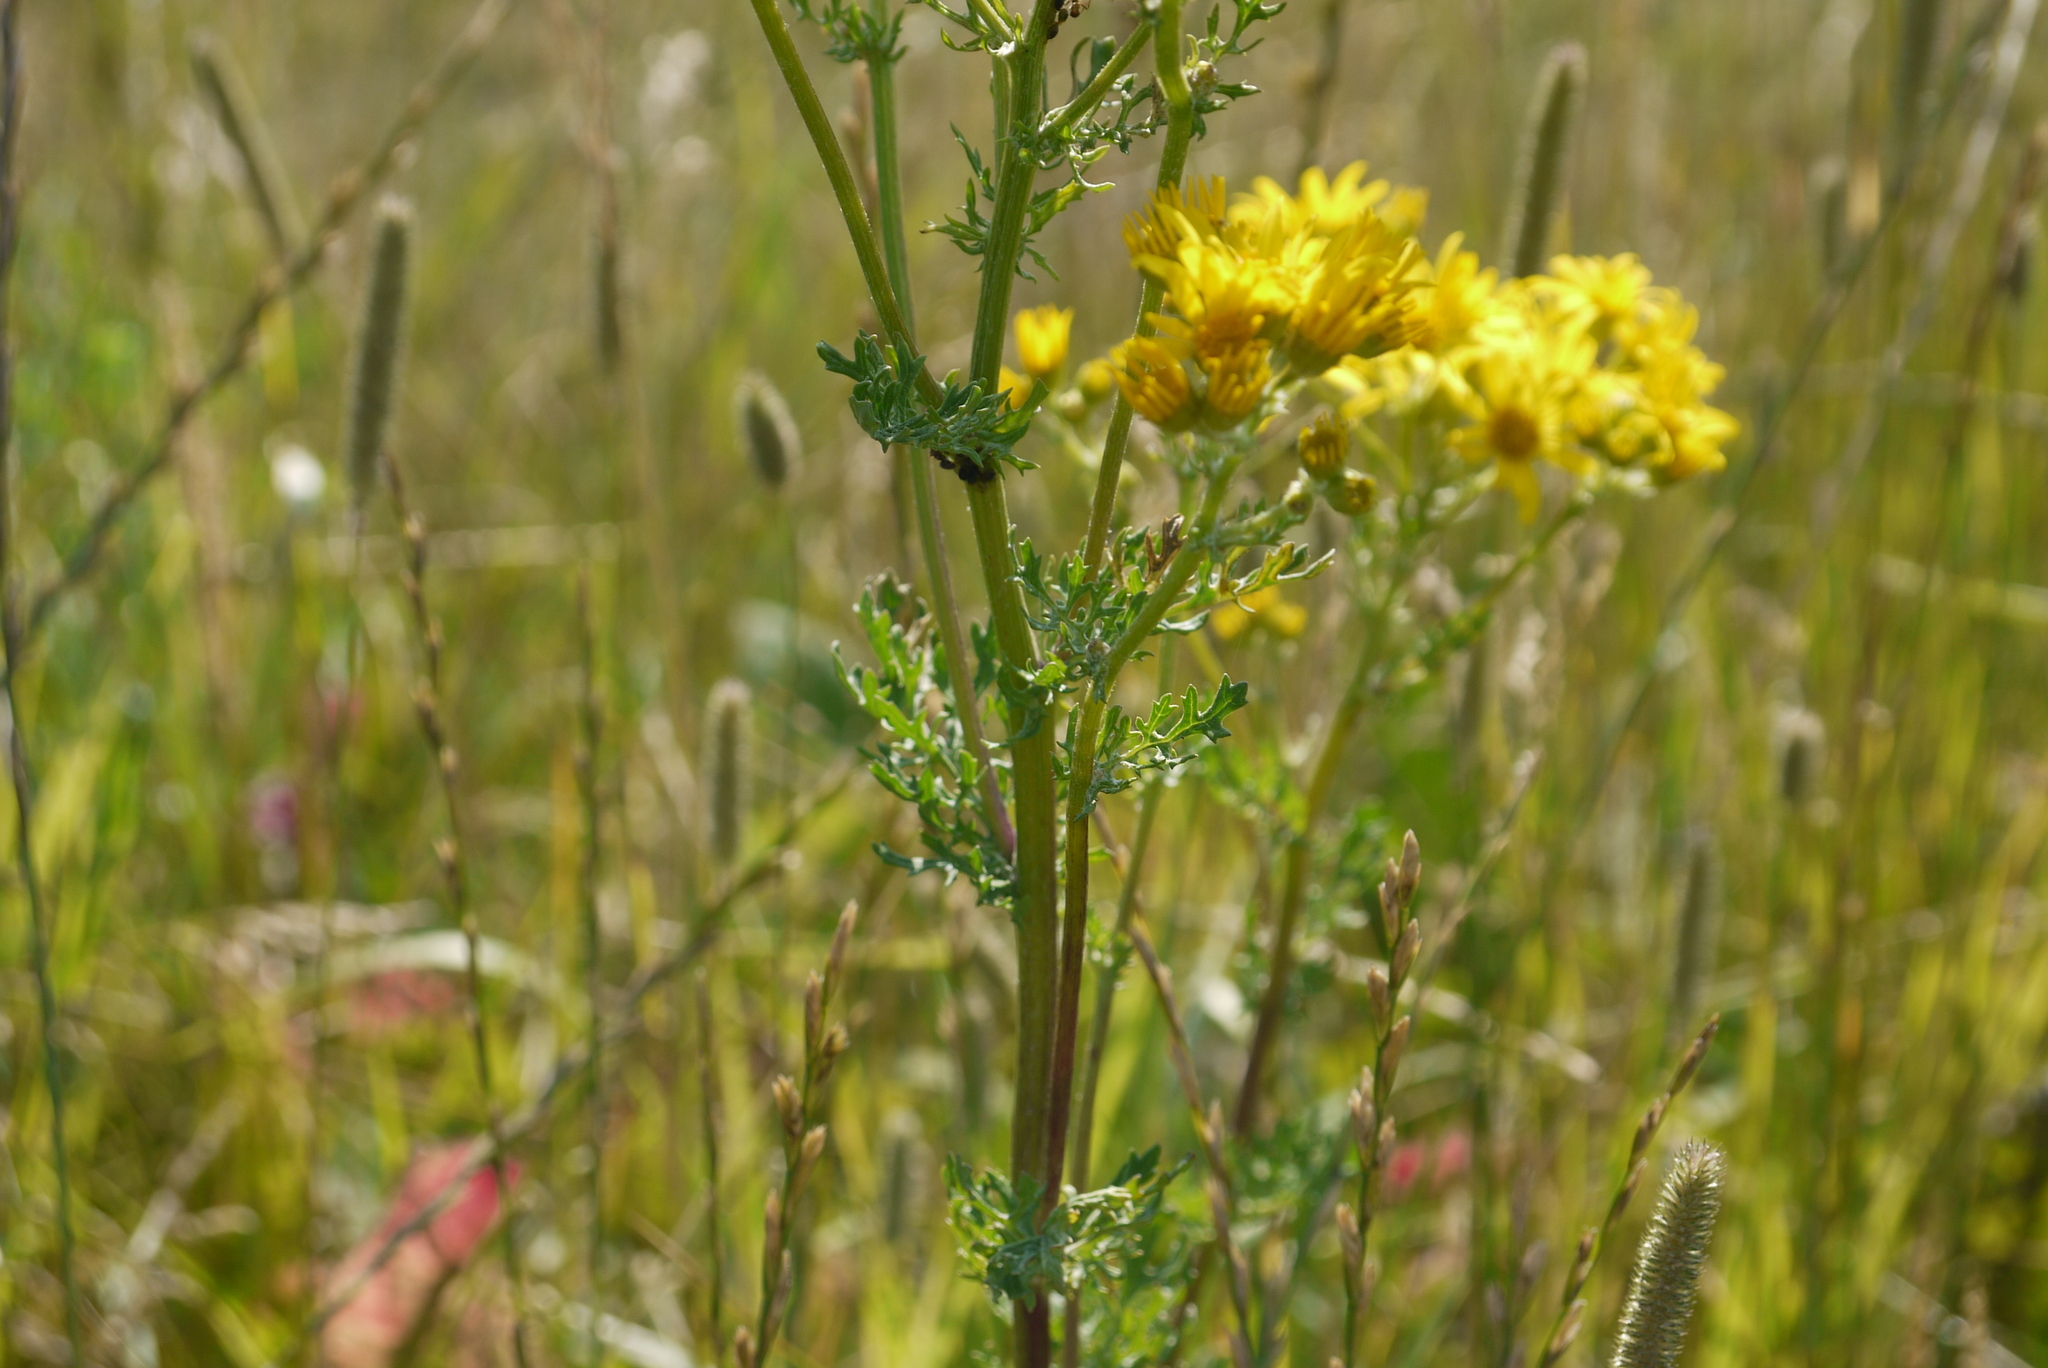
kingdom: Plantae
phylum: Tracheophyta
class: Magnoliopsida
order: Asterales
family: Asteraceae
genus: Jacobaea
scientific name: Jacobaea vulgaris
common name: Stinking willie
